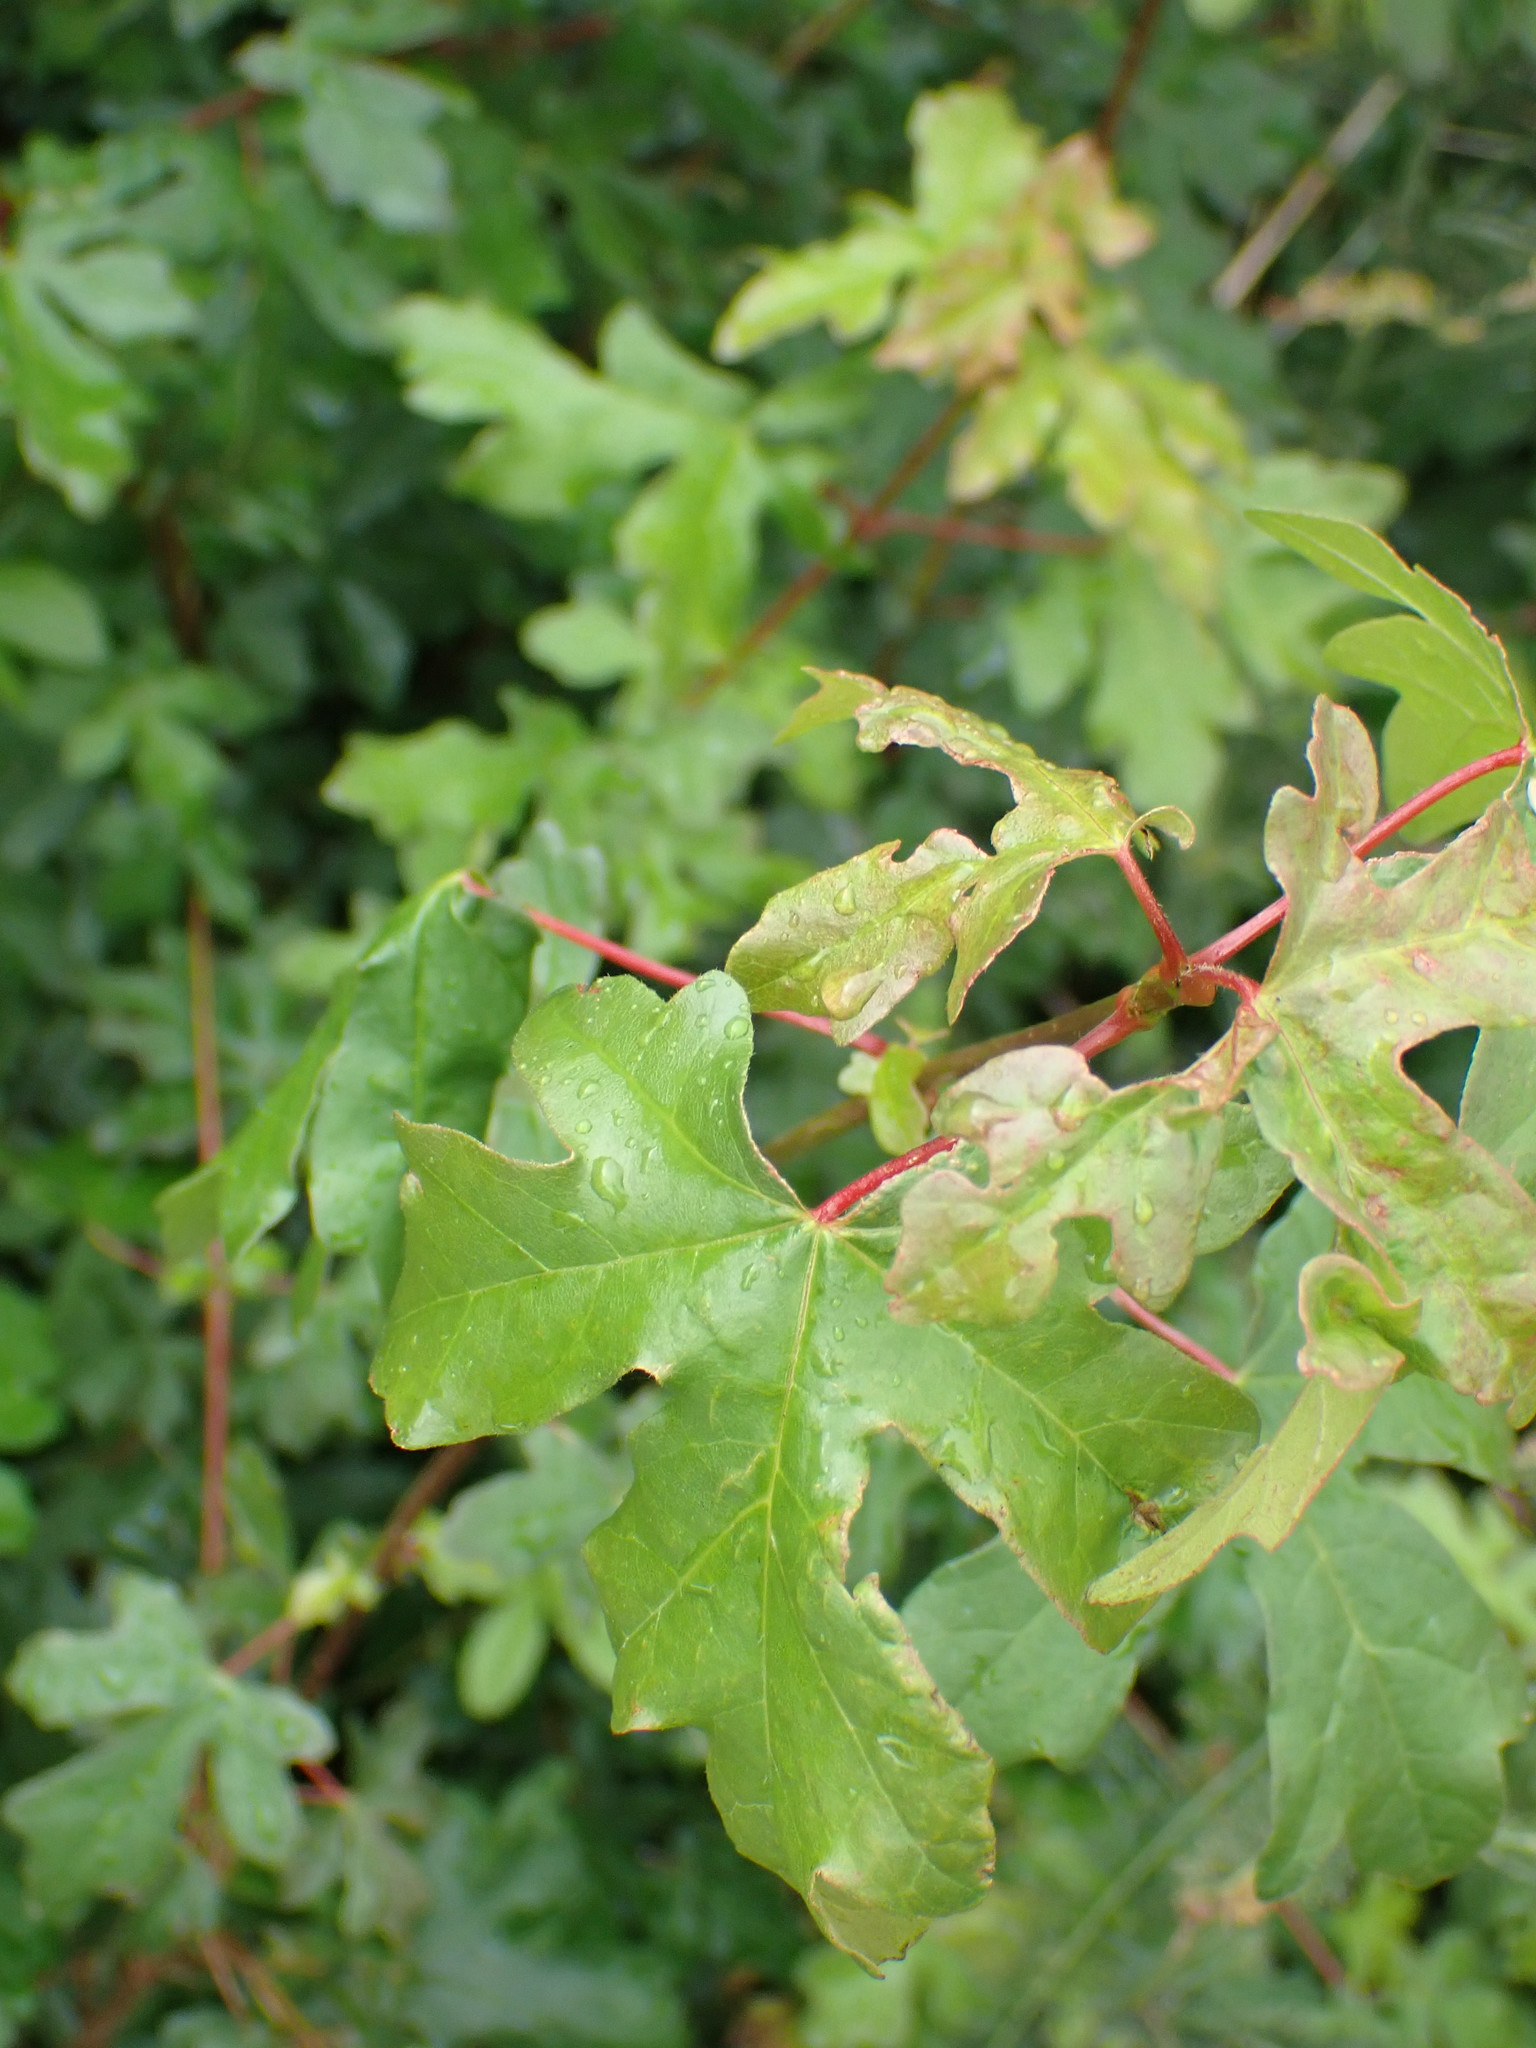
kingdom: Plantae
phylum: Tracheophyta
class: Magnoliopsida
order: Sapindales
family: Sapindaceae
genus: Acer
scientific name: Acer campestre
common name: Field maple
